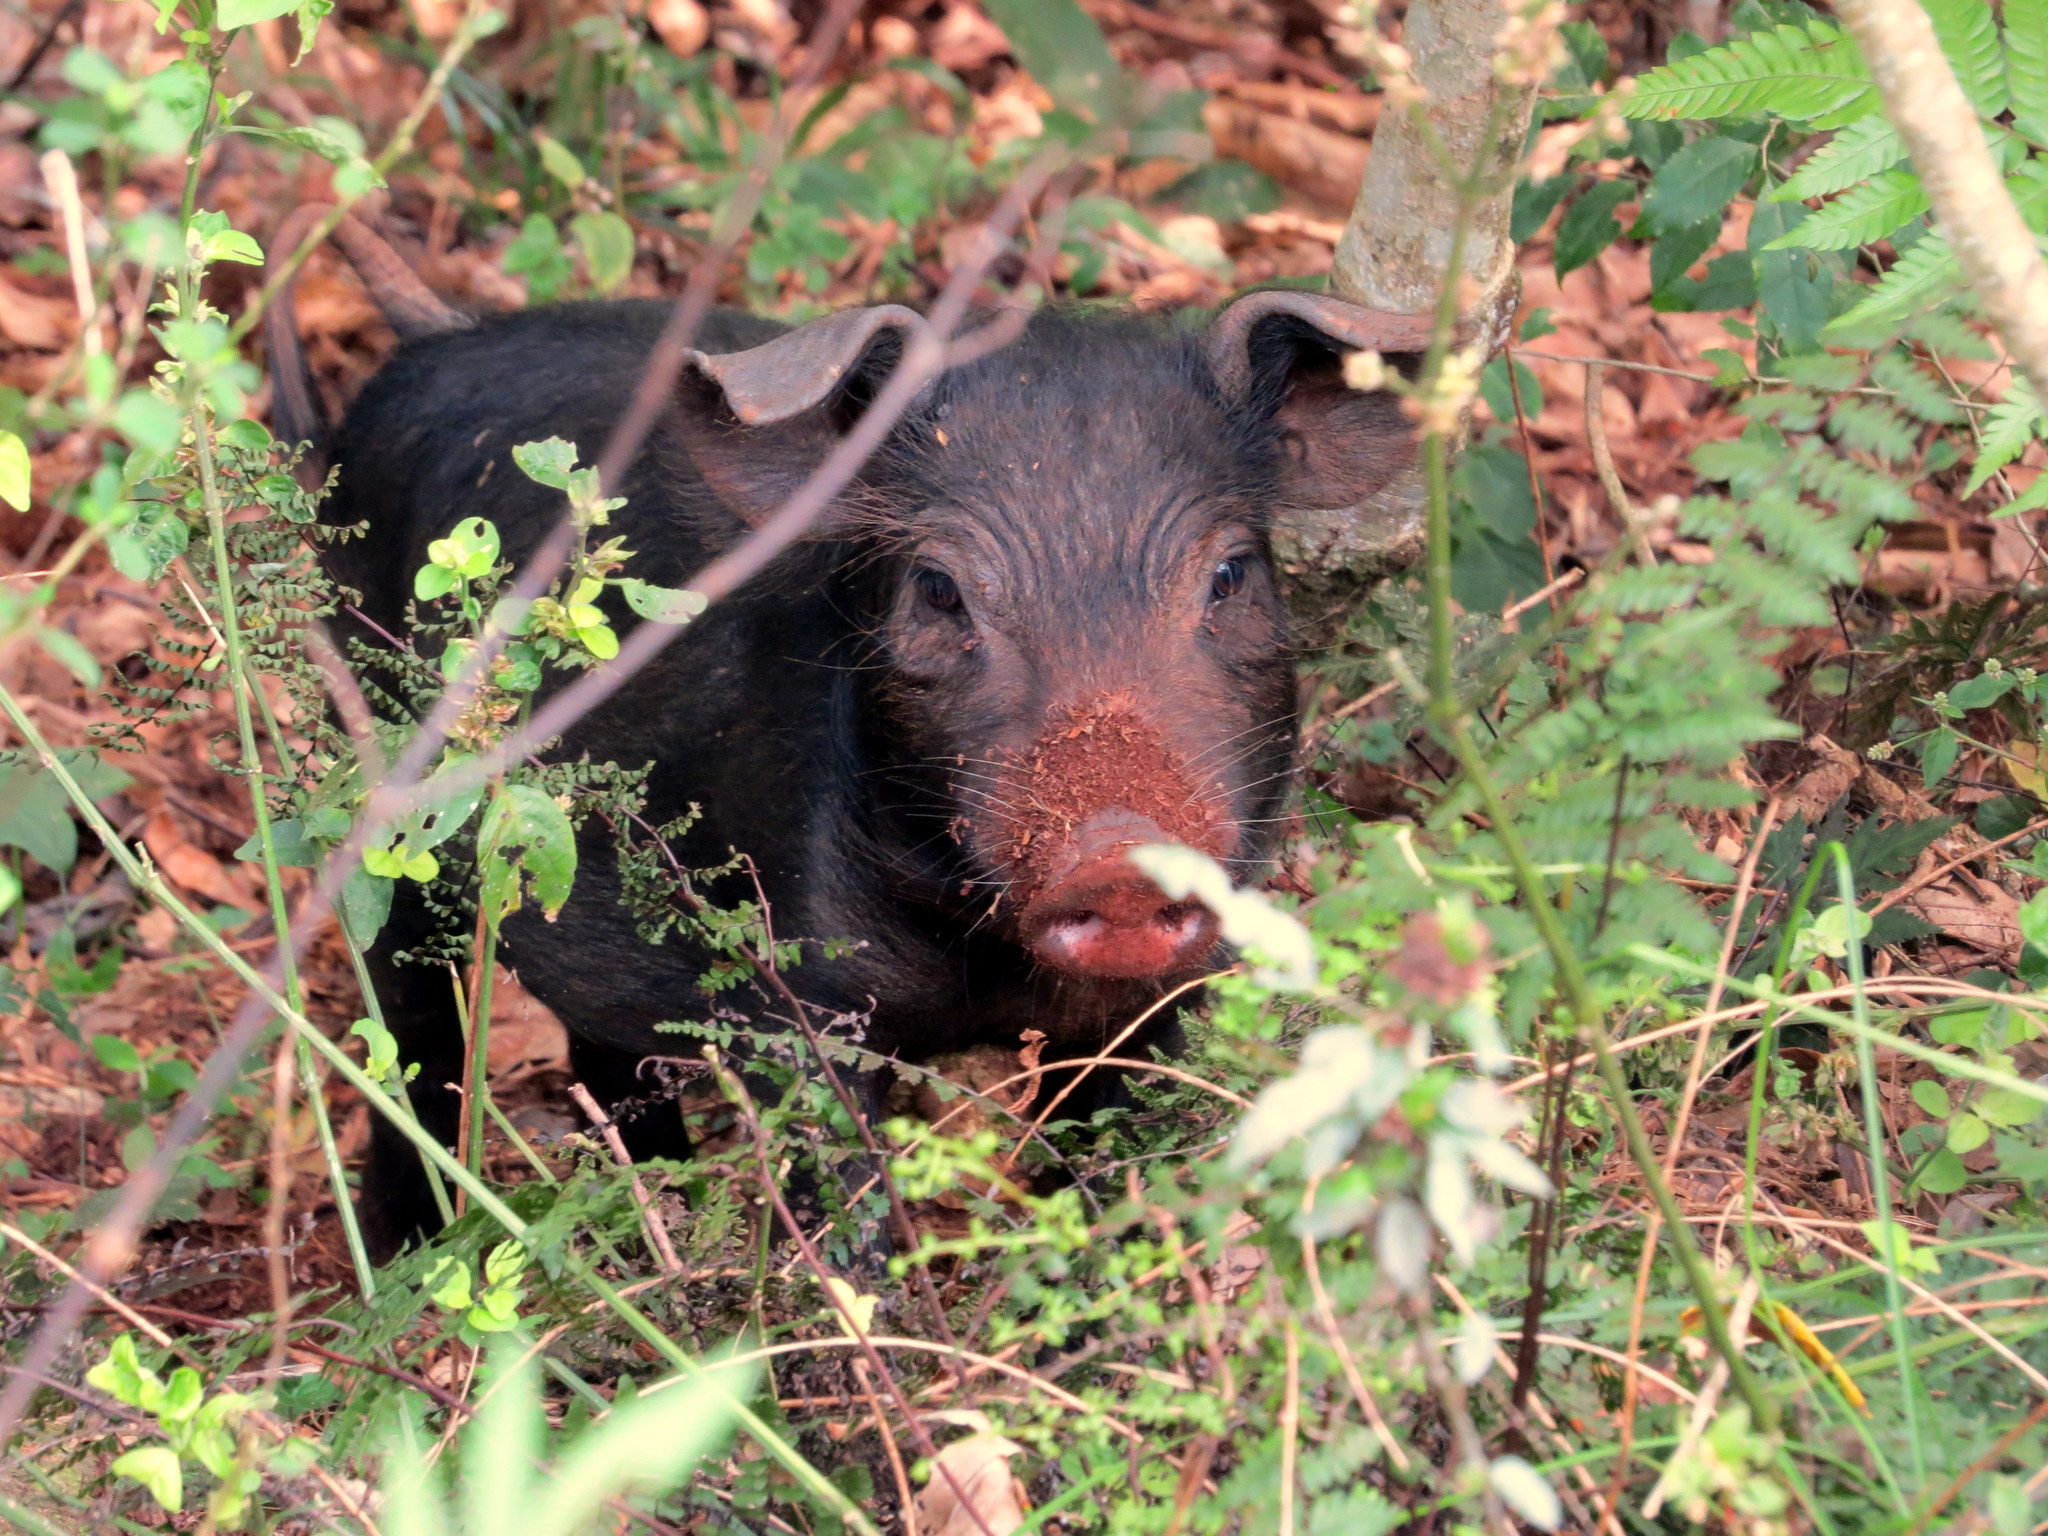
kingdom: Animalia
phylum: Chordata
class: Mammalia
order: Artiodactyla
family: Suidae
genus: Sus
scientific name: Sus scrofa
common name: Wild boar
